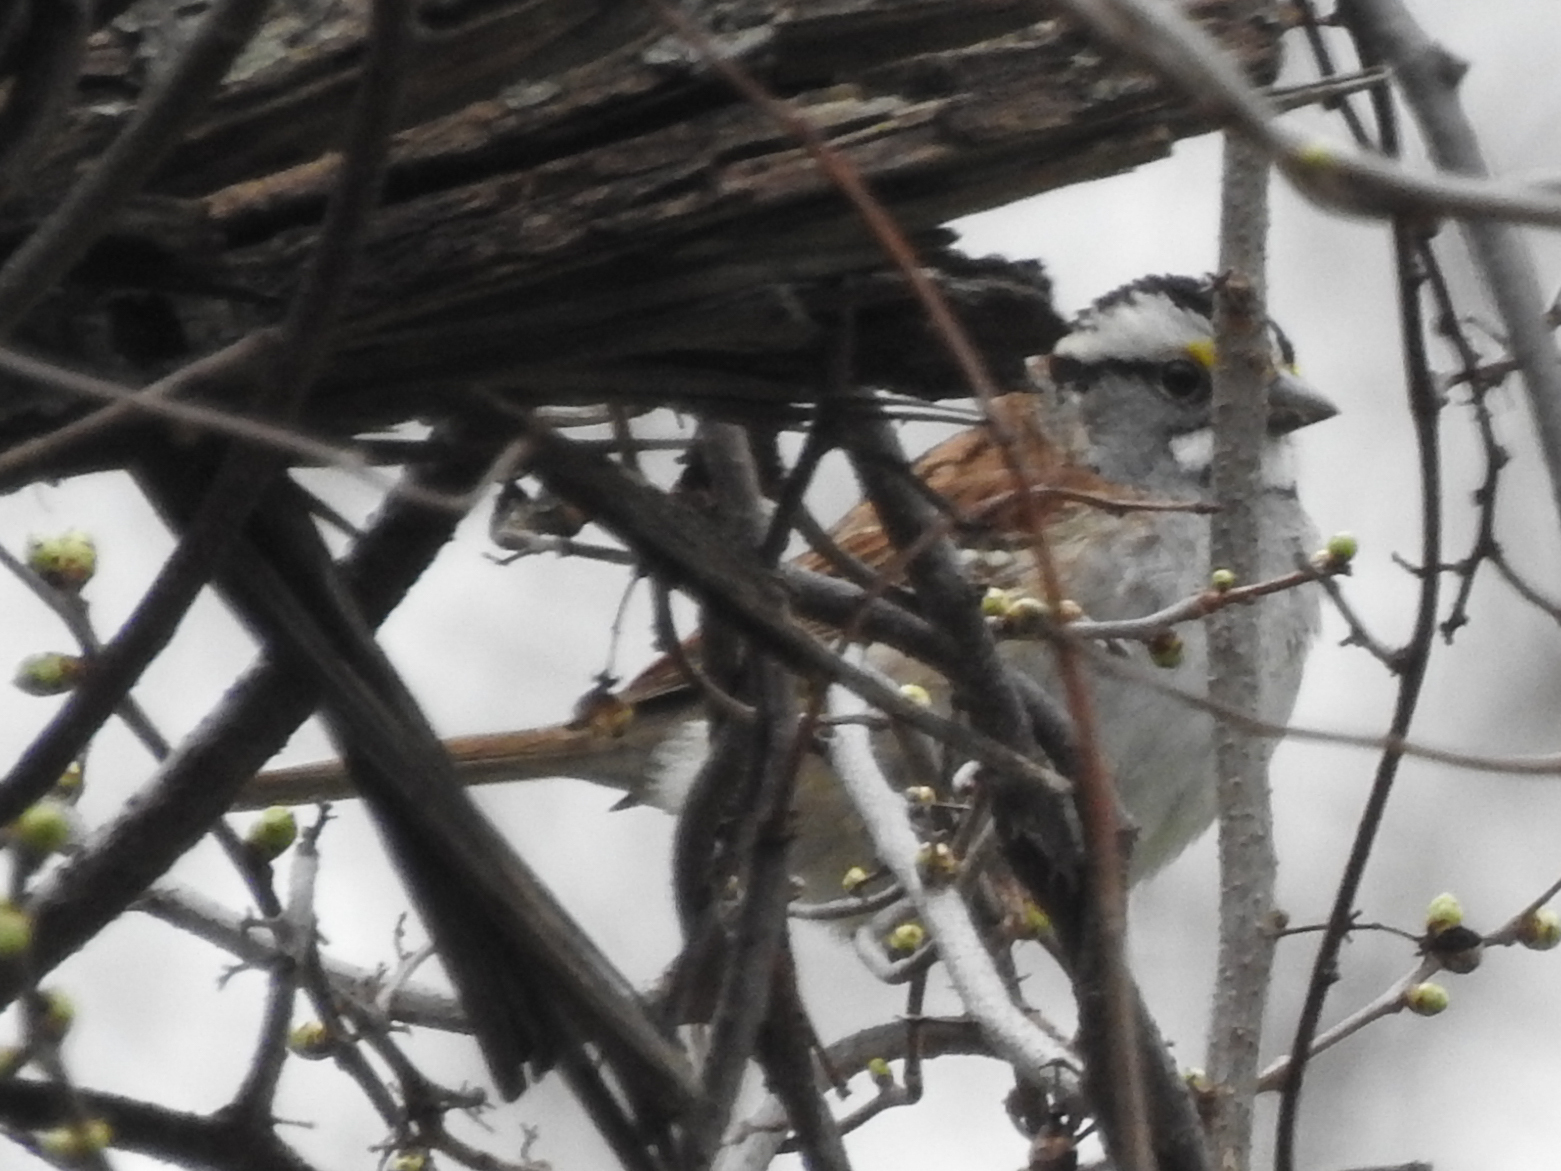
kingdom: Animalia
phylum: Chordata
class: Aves
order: Passeriformes
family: Passerellidae
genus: Zonotrichia
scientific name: Zonotrichia albicollis
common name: White-throated sparrow
